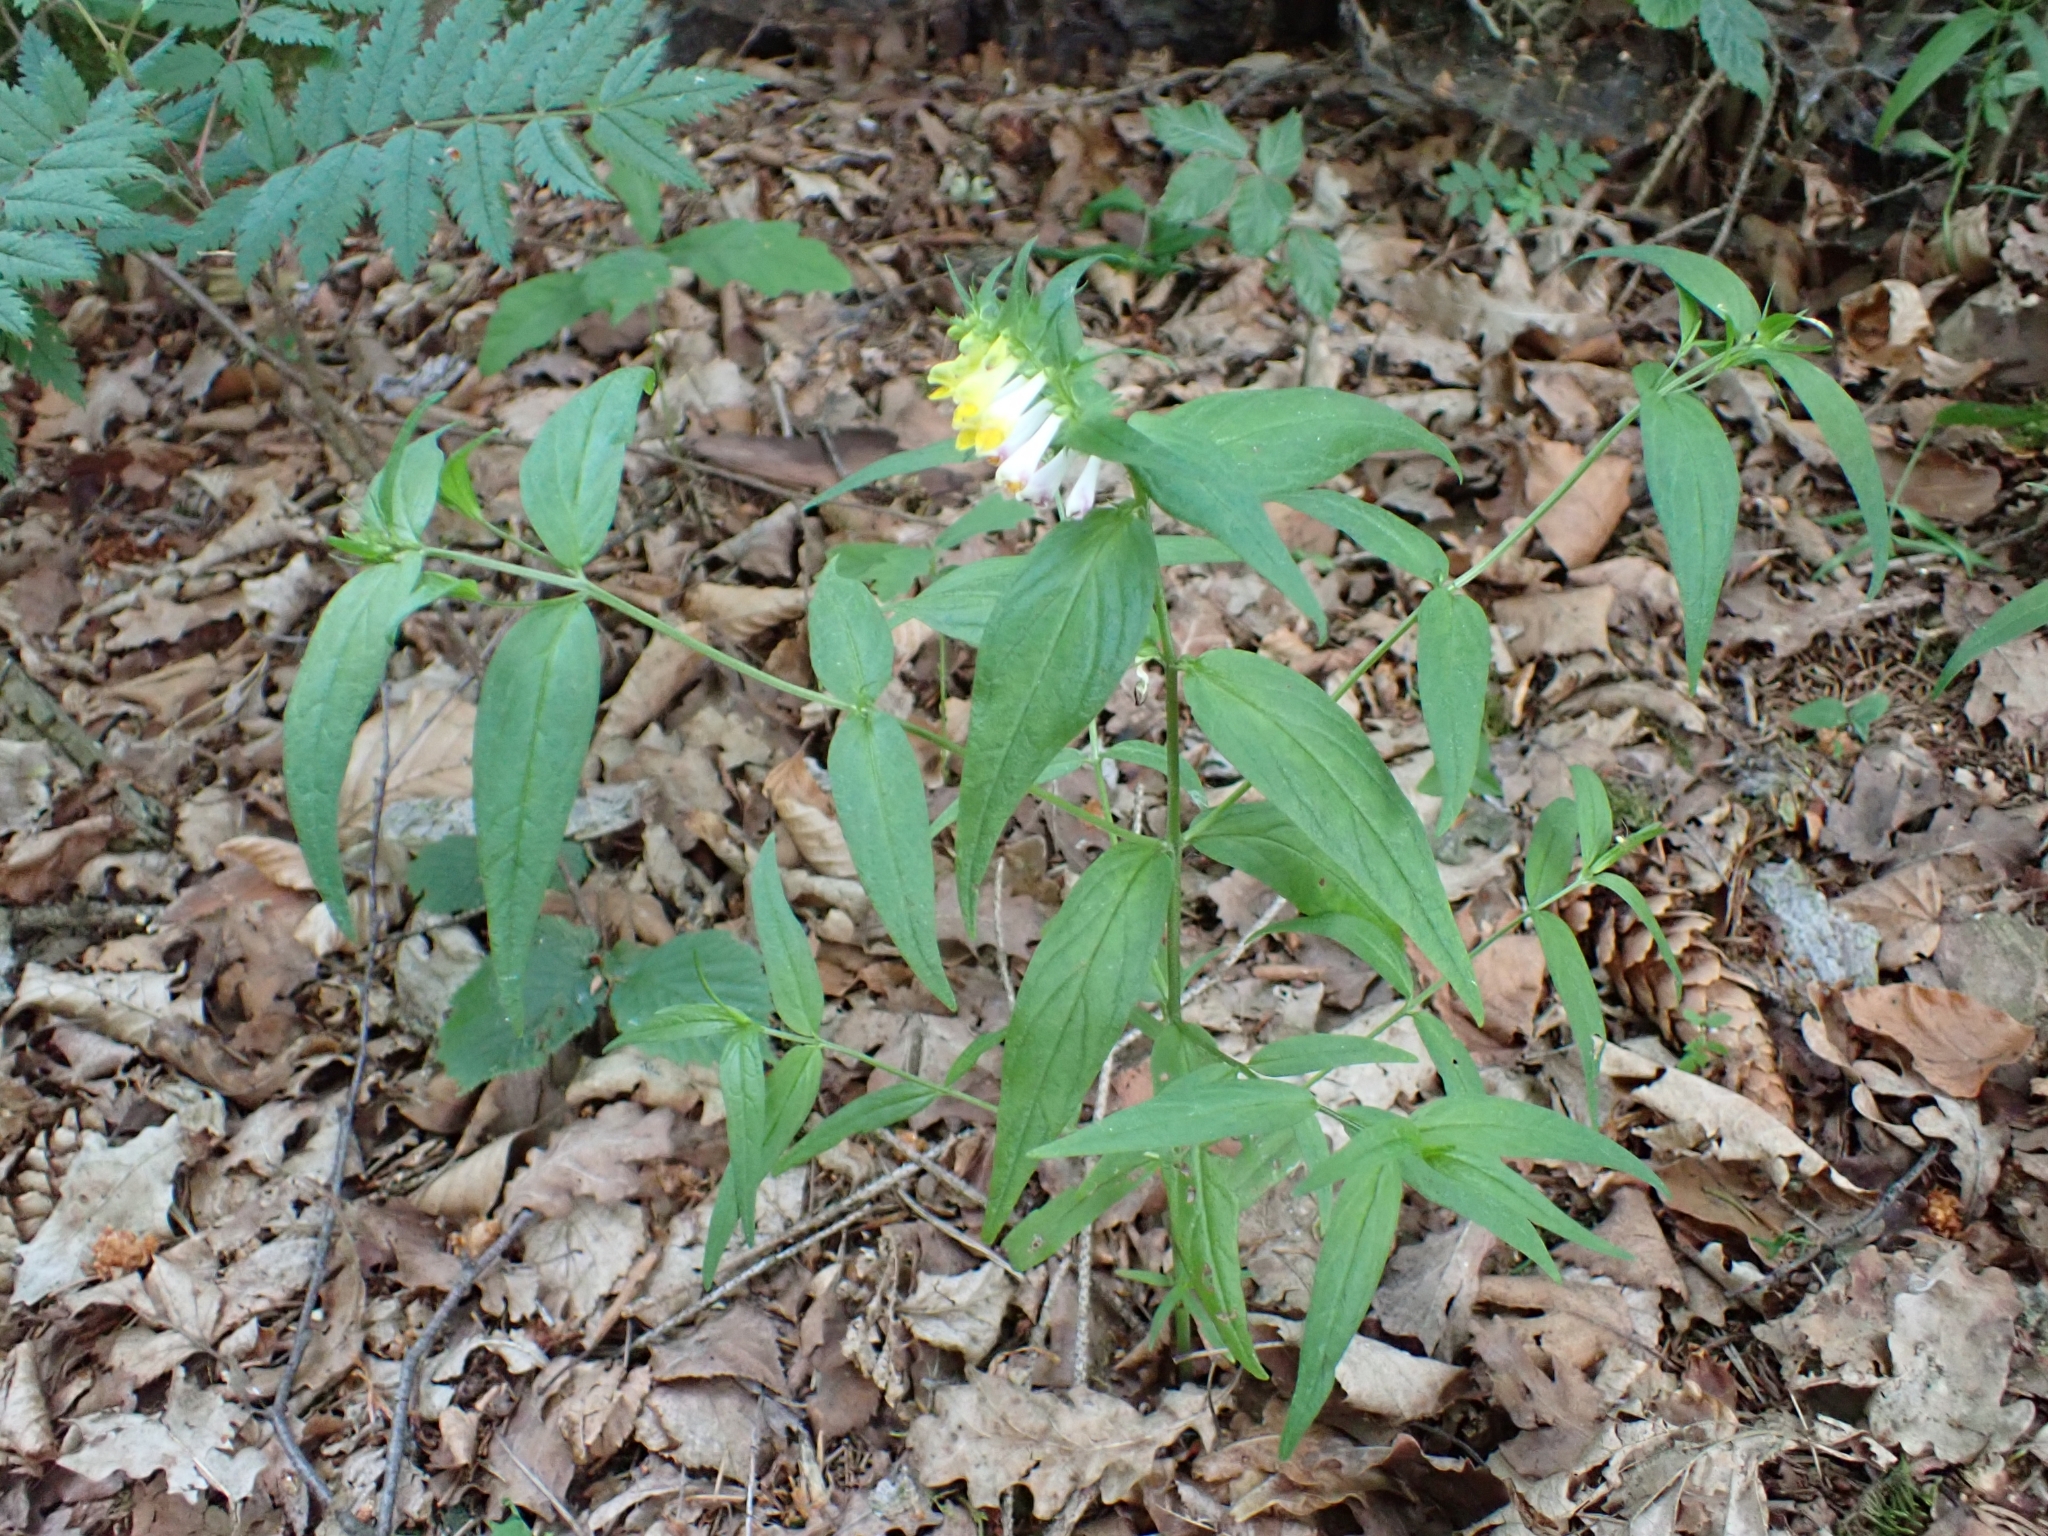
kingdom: Plantae
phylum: Tracheophyta
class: Magnoliopsida
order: Lamiales
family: Orobanchaceae
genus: Melampyrum
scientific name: Melampyrum pratense
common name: Common cow-wheat
